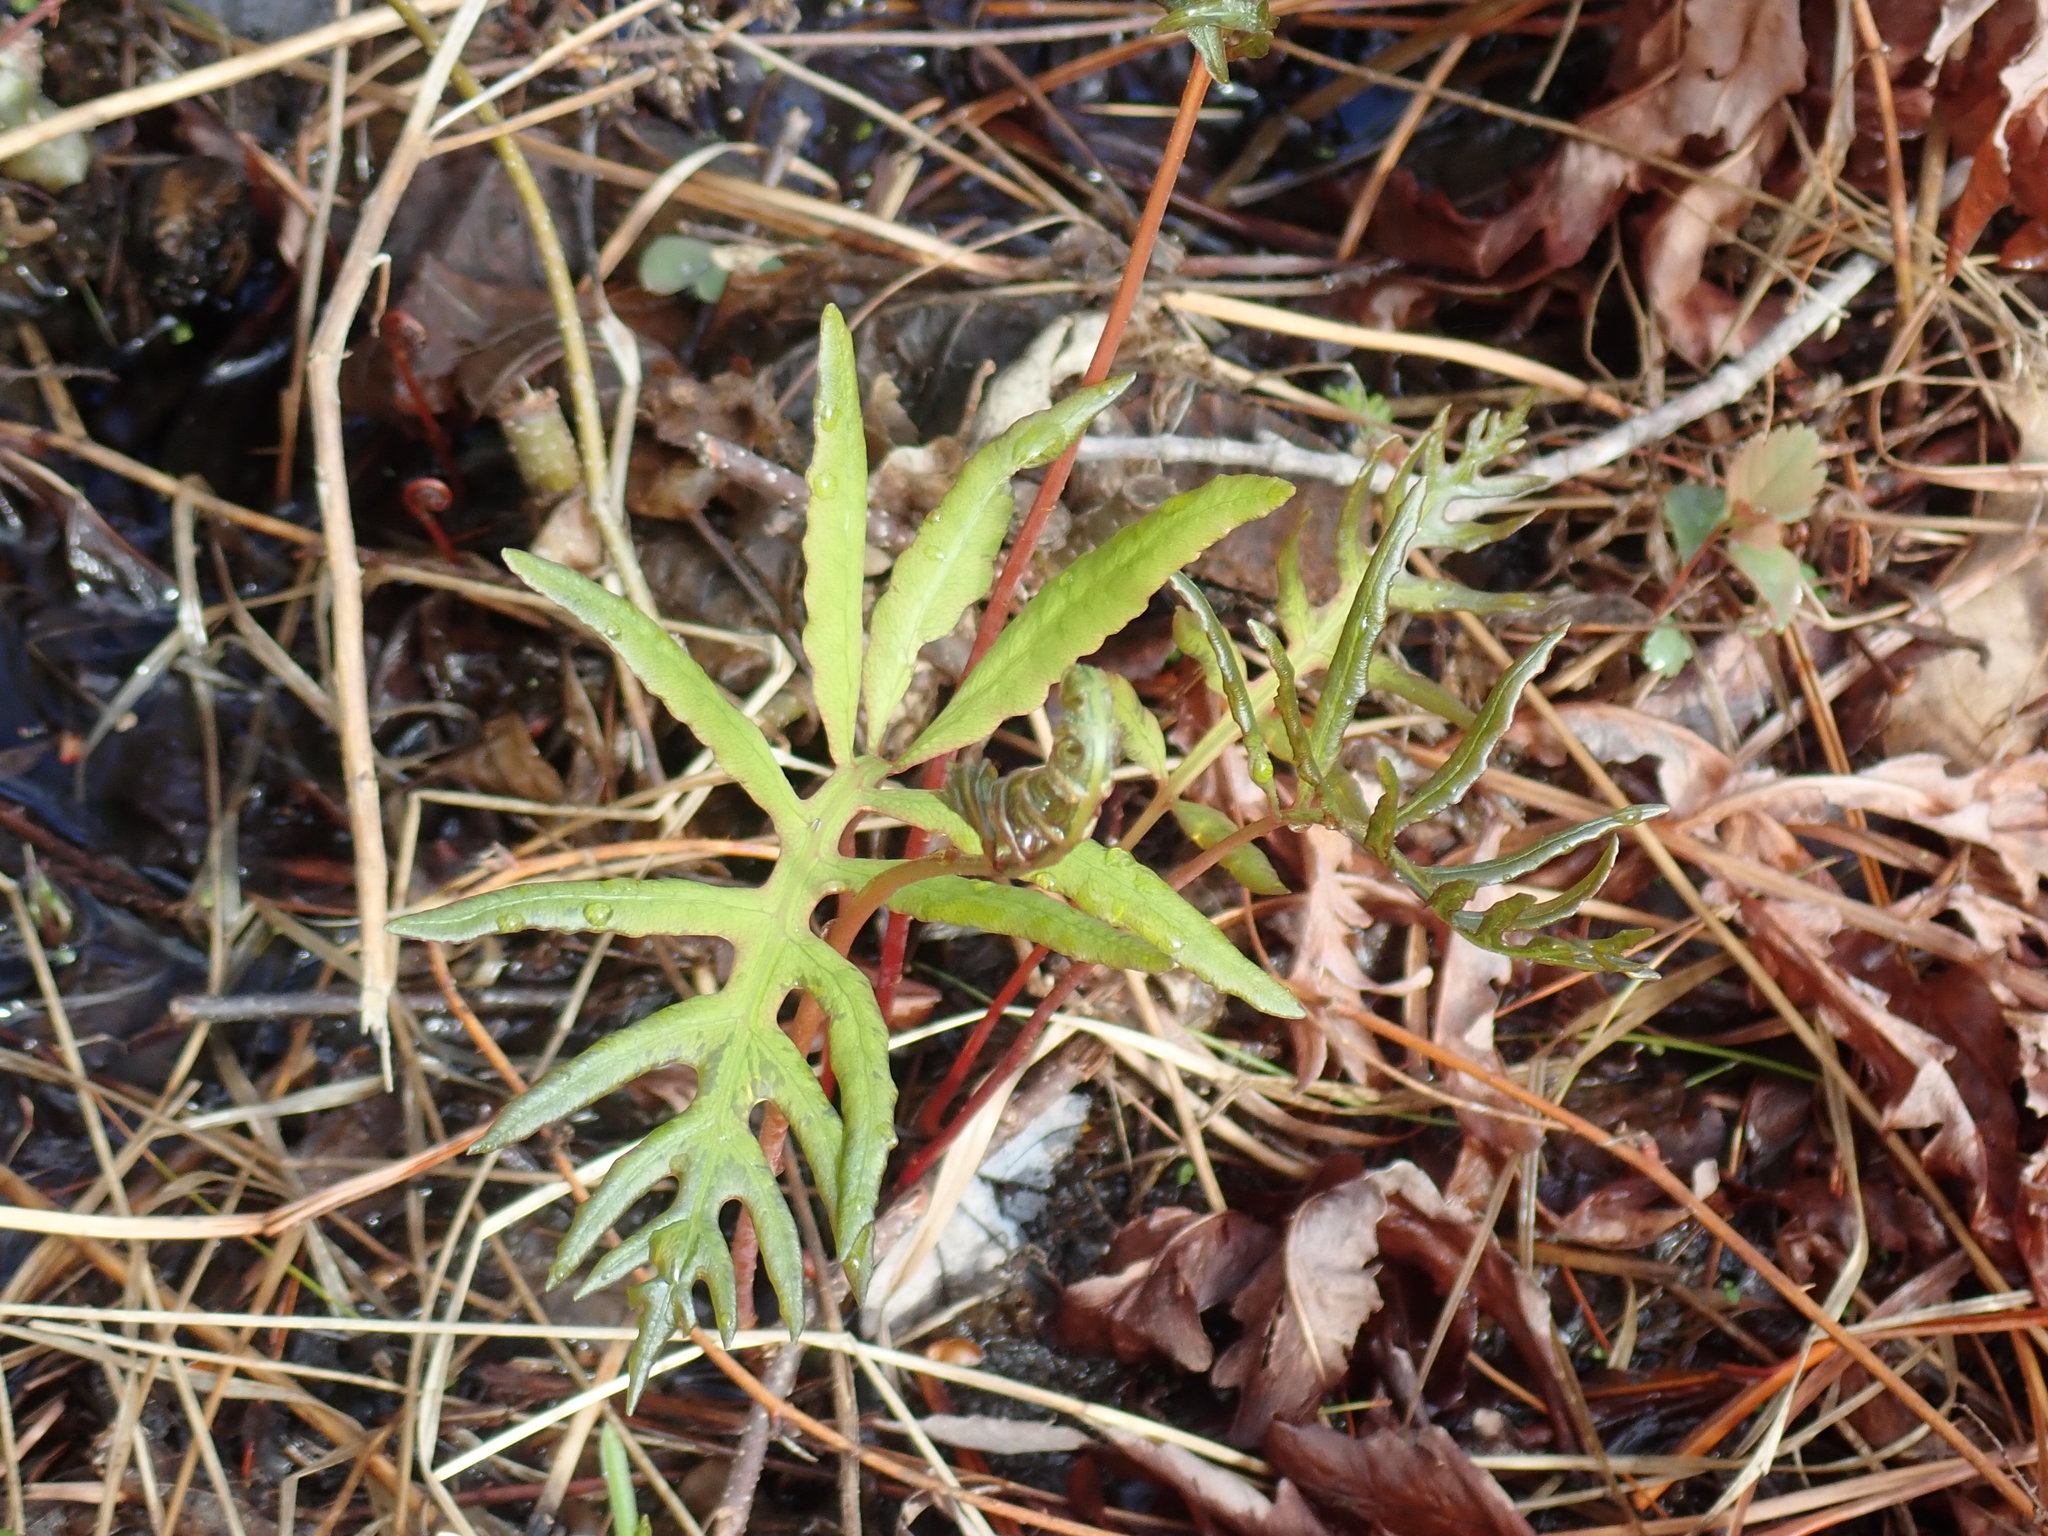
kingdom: Plantae
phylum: Tracheophyta
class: Polypodiopsida
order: Polypodiales
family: Onocleaceae
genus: Onoclea
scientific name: Onoclea sensibilis
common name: Sensitive fern
